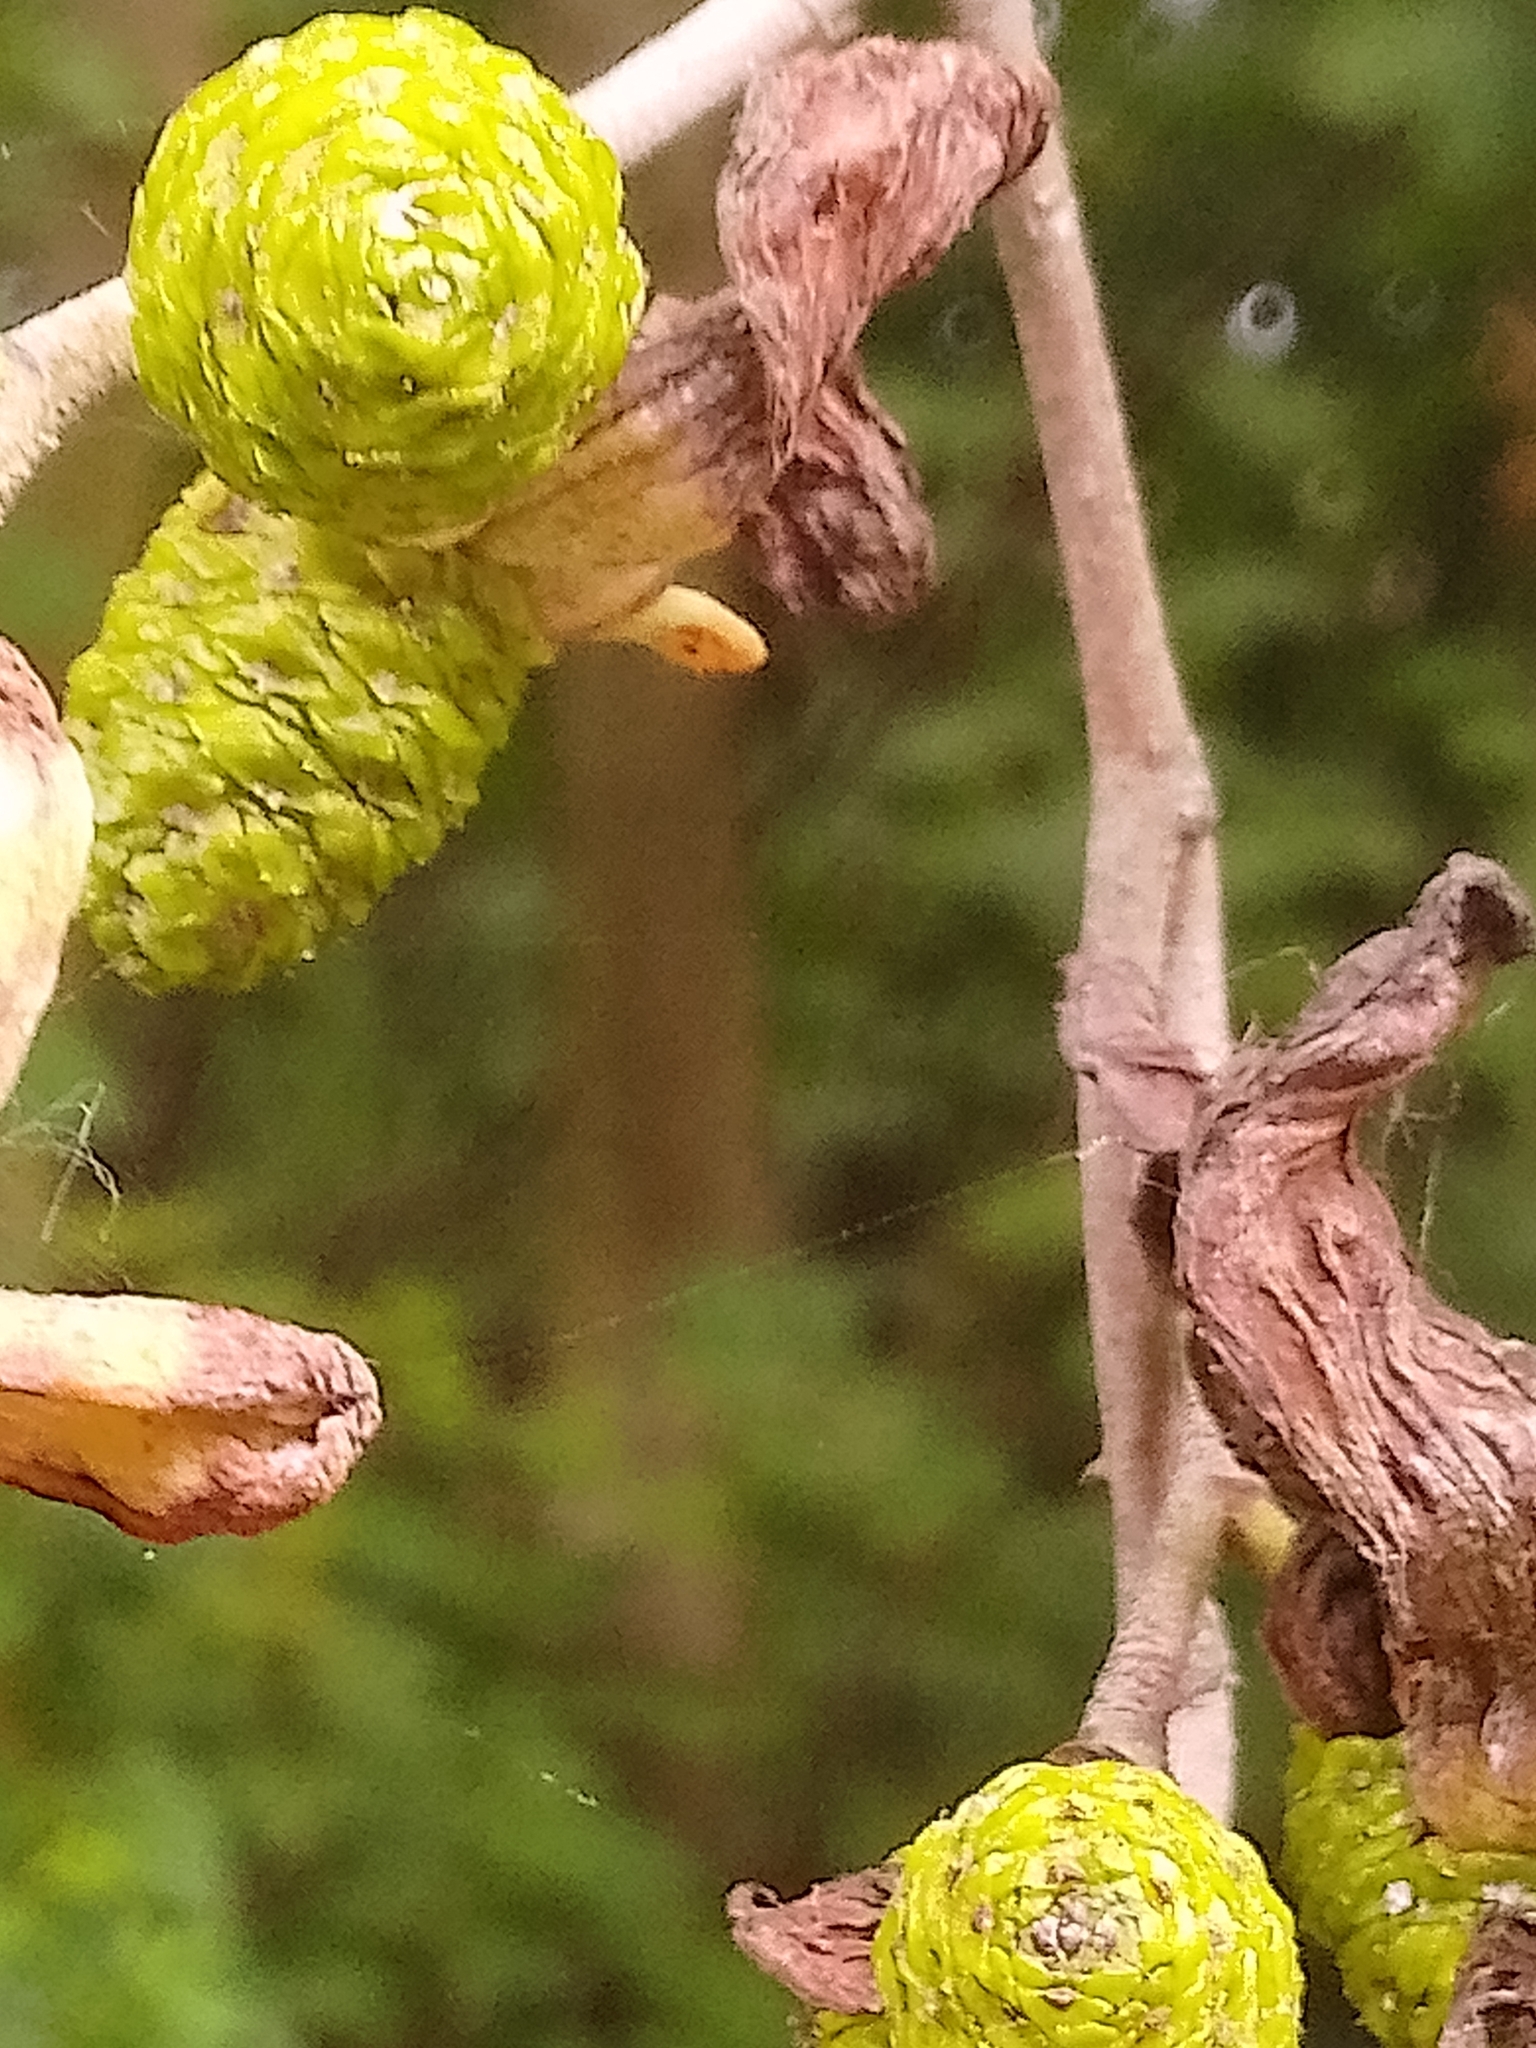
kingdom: Fungi
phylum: Ascomycota
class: Taphrinomycetes
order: Taphrinales
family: Taphrinaceae
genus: Taphrina
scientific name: Taphrina alni
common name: Alder tongue
